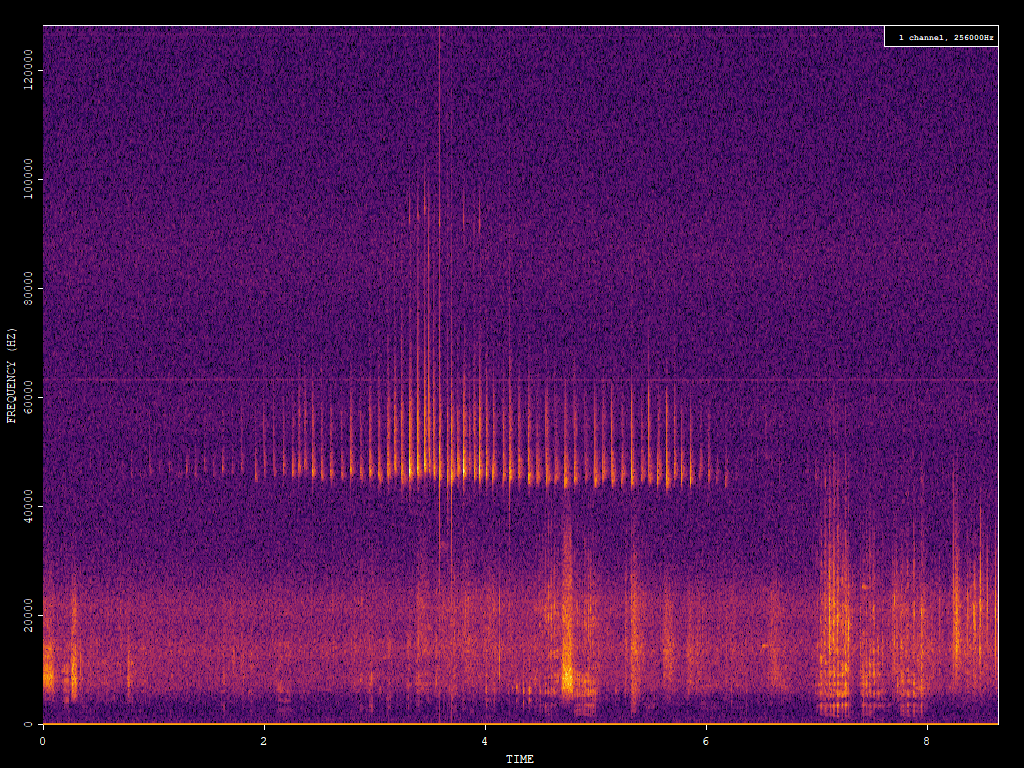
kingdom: Animalia
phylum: Chordata
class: Mammalia
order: Chiroptera
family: Vespertilionidae
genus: Pipistrellus
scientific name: Pipistrellus pipistrellus
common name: Common pipistrelle
